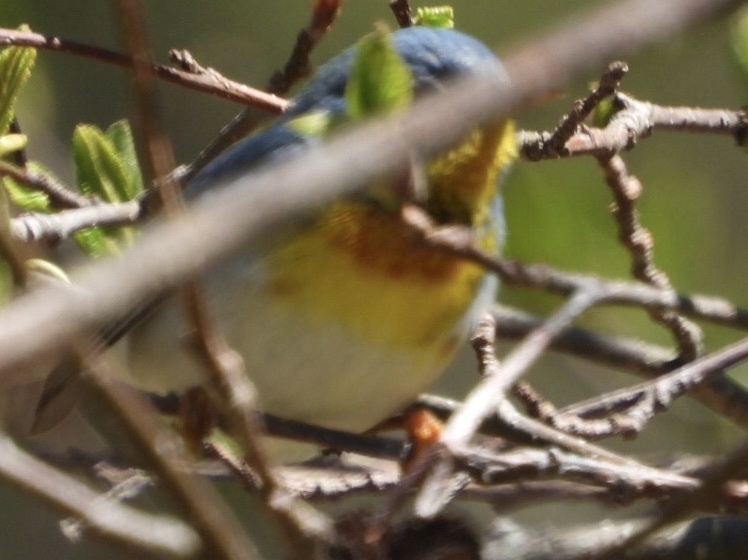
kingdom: Animalia
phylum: Chordata
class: Aves
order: Passeriformes
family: Parulidae
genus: Setophaga
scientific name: Setophaga americana
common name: Northern parula
